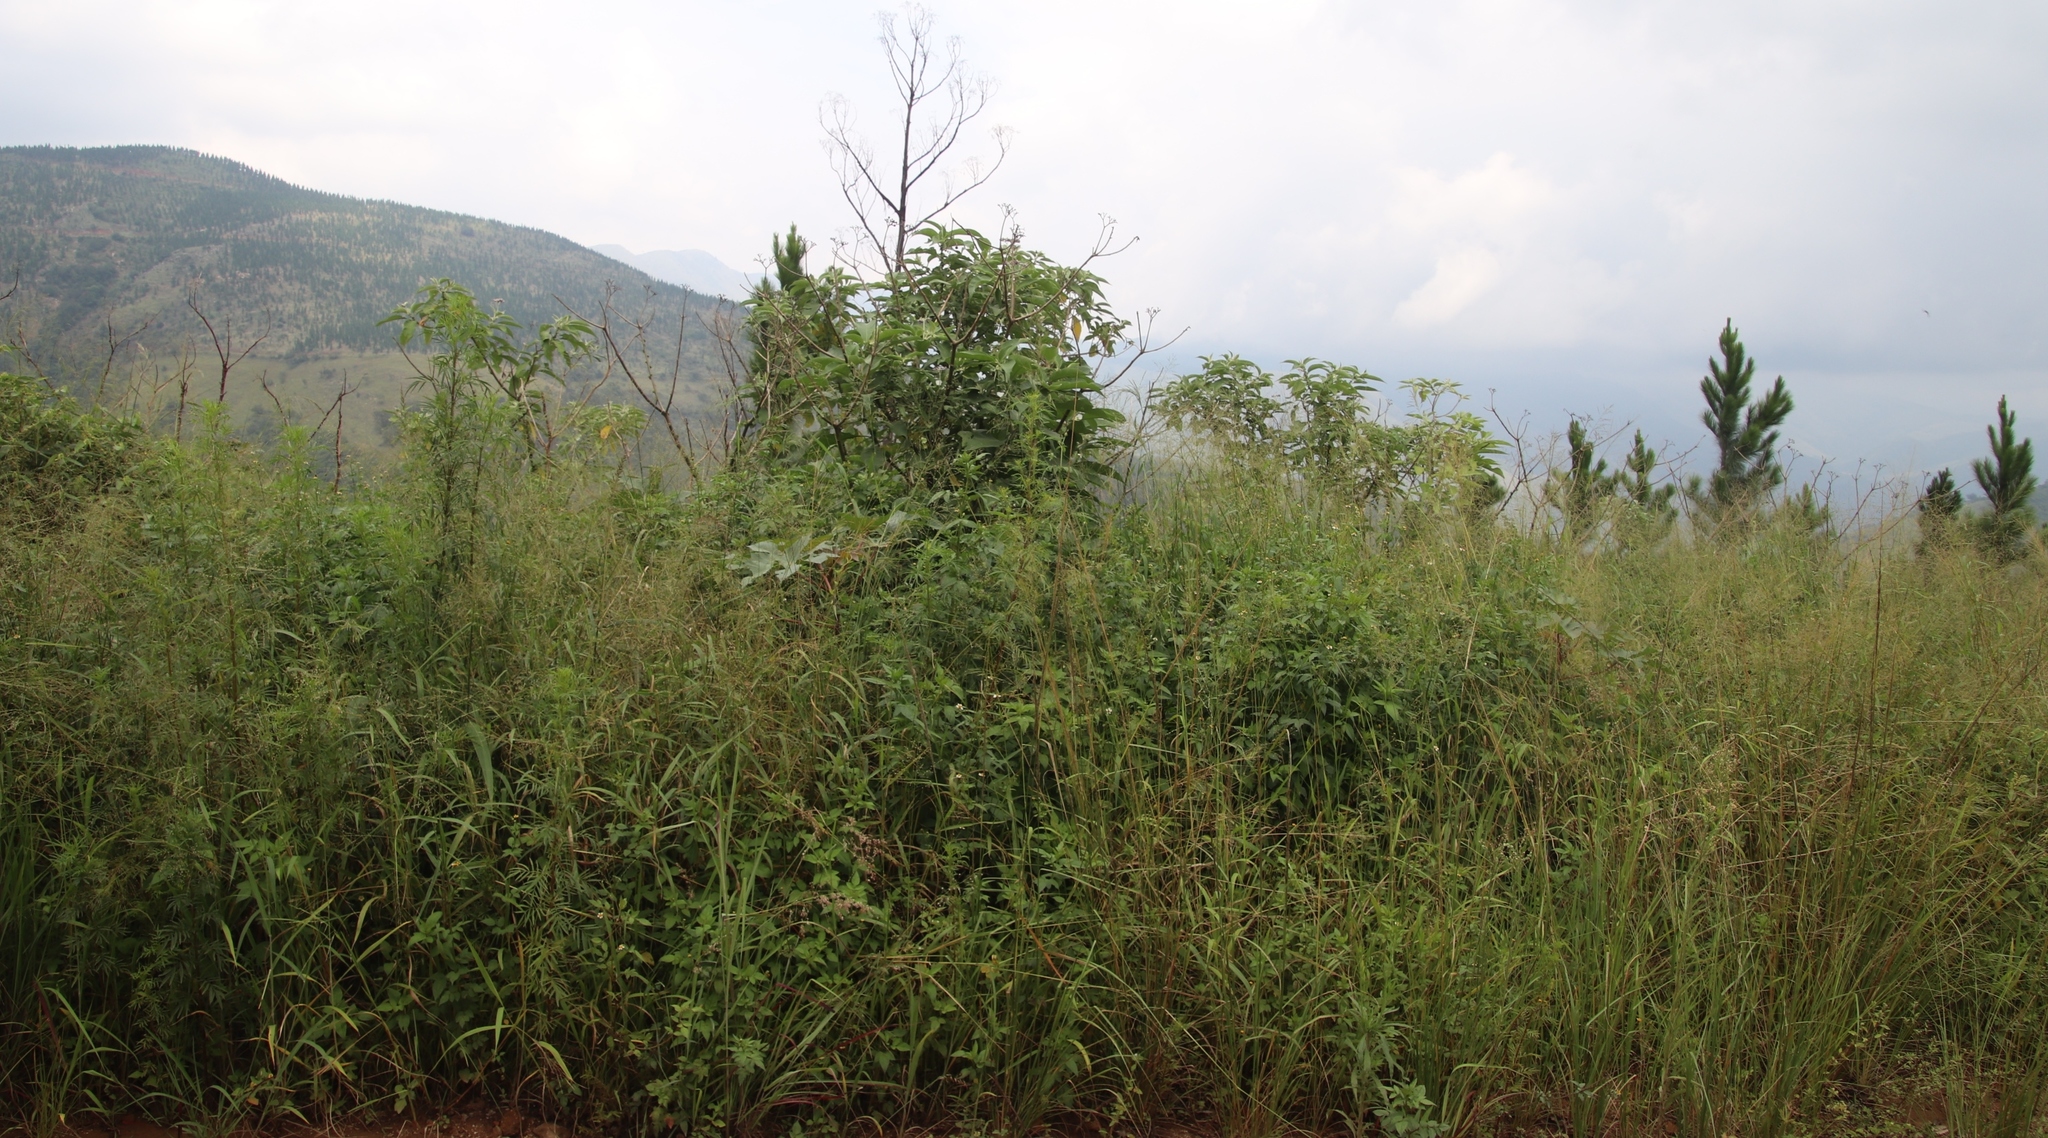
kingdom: Plantae
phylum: Tracheophyta
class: Magnoliopsida
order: Solanales
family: Solanaceae
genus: Solanum
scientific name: Solanum mauritianum
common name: Earleaf nightshade
